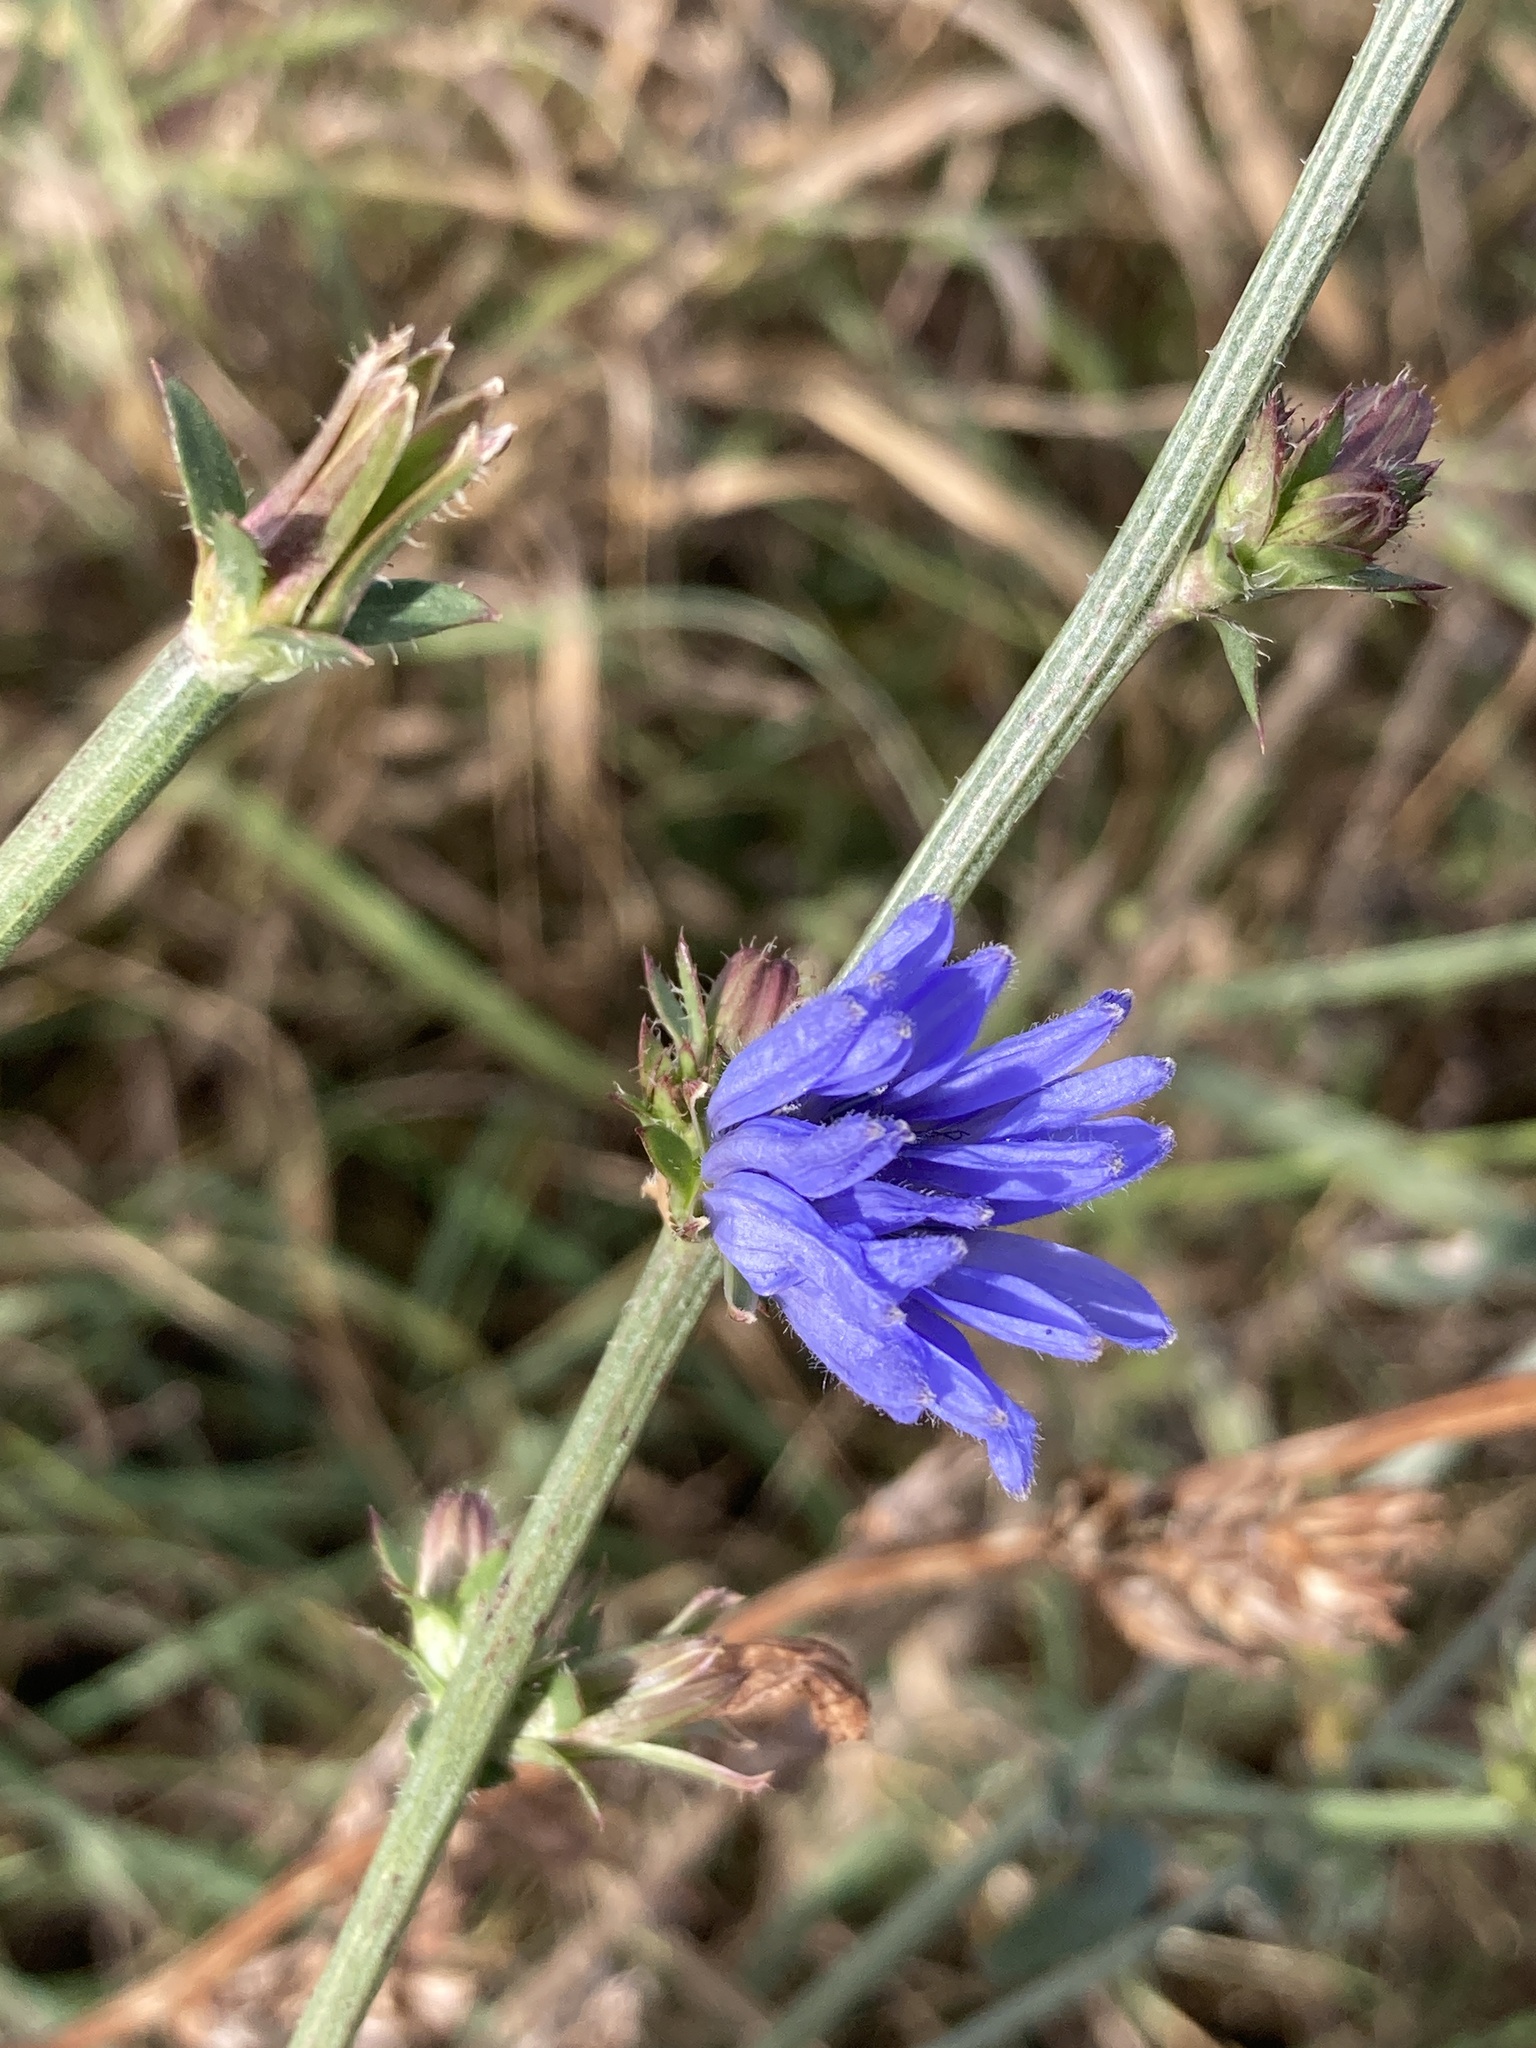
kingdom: Plantae
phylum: Tracheophyta
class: Magnoliopsida
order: Asterales
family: Asteraceae
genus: Cichorium
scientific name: Cichorium intybus
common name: Chicory
